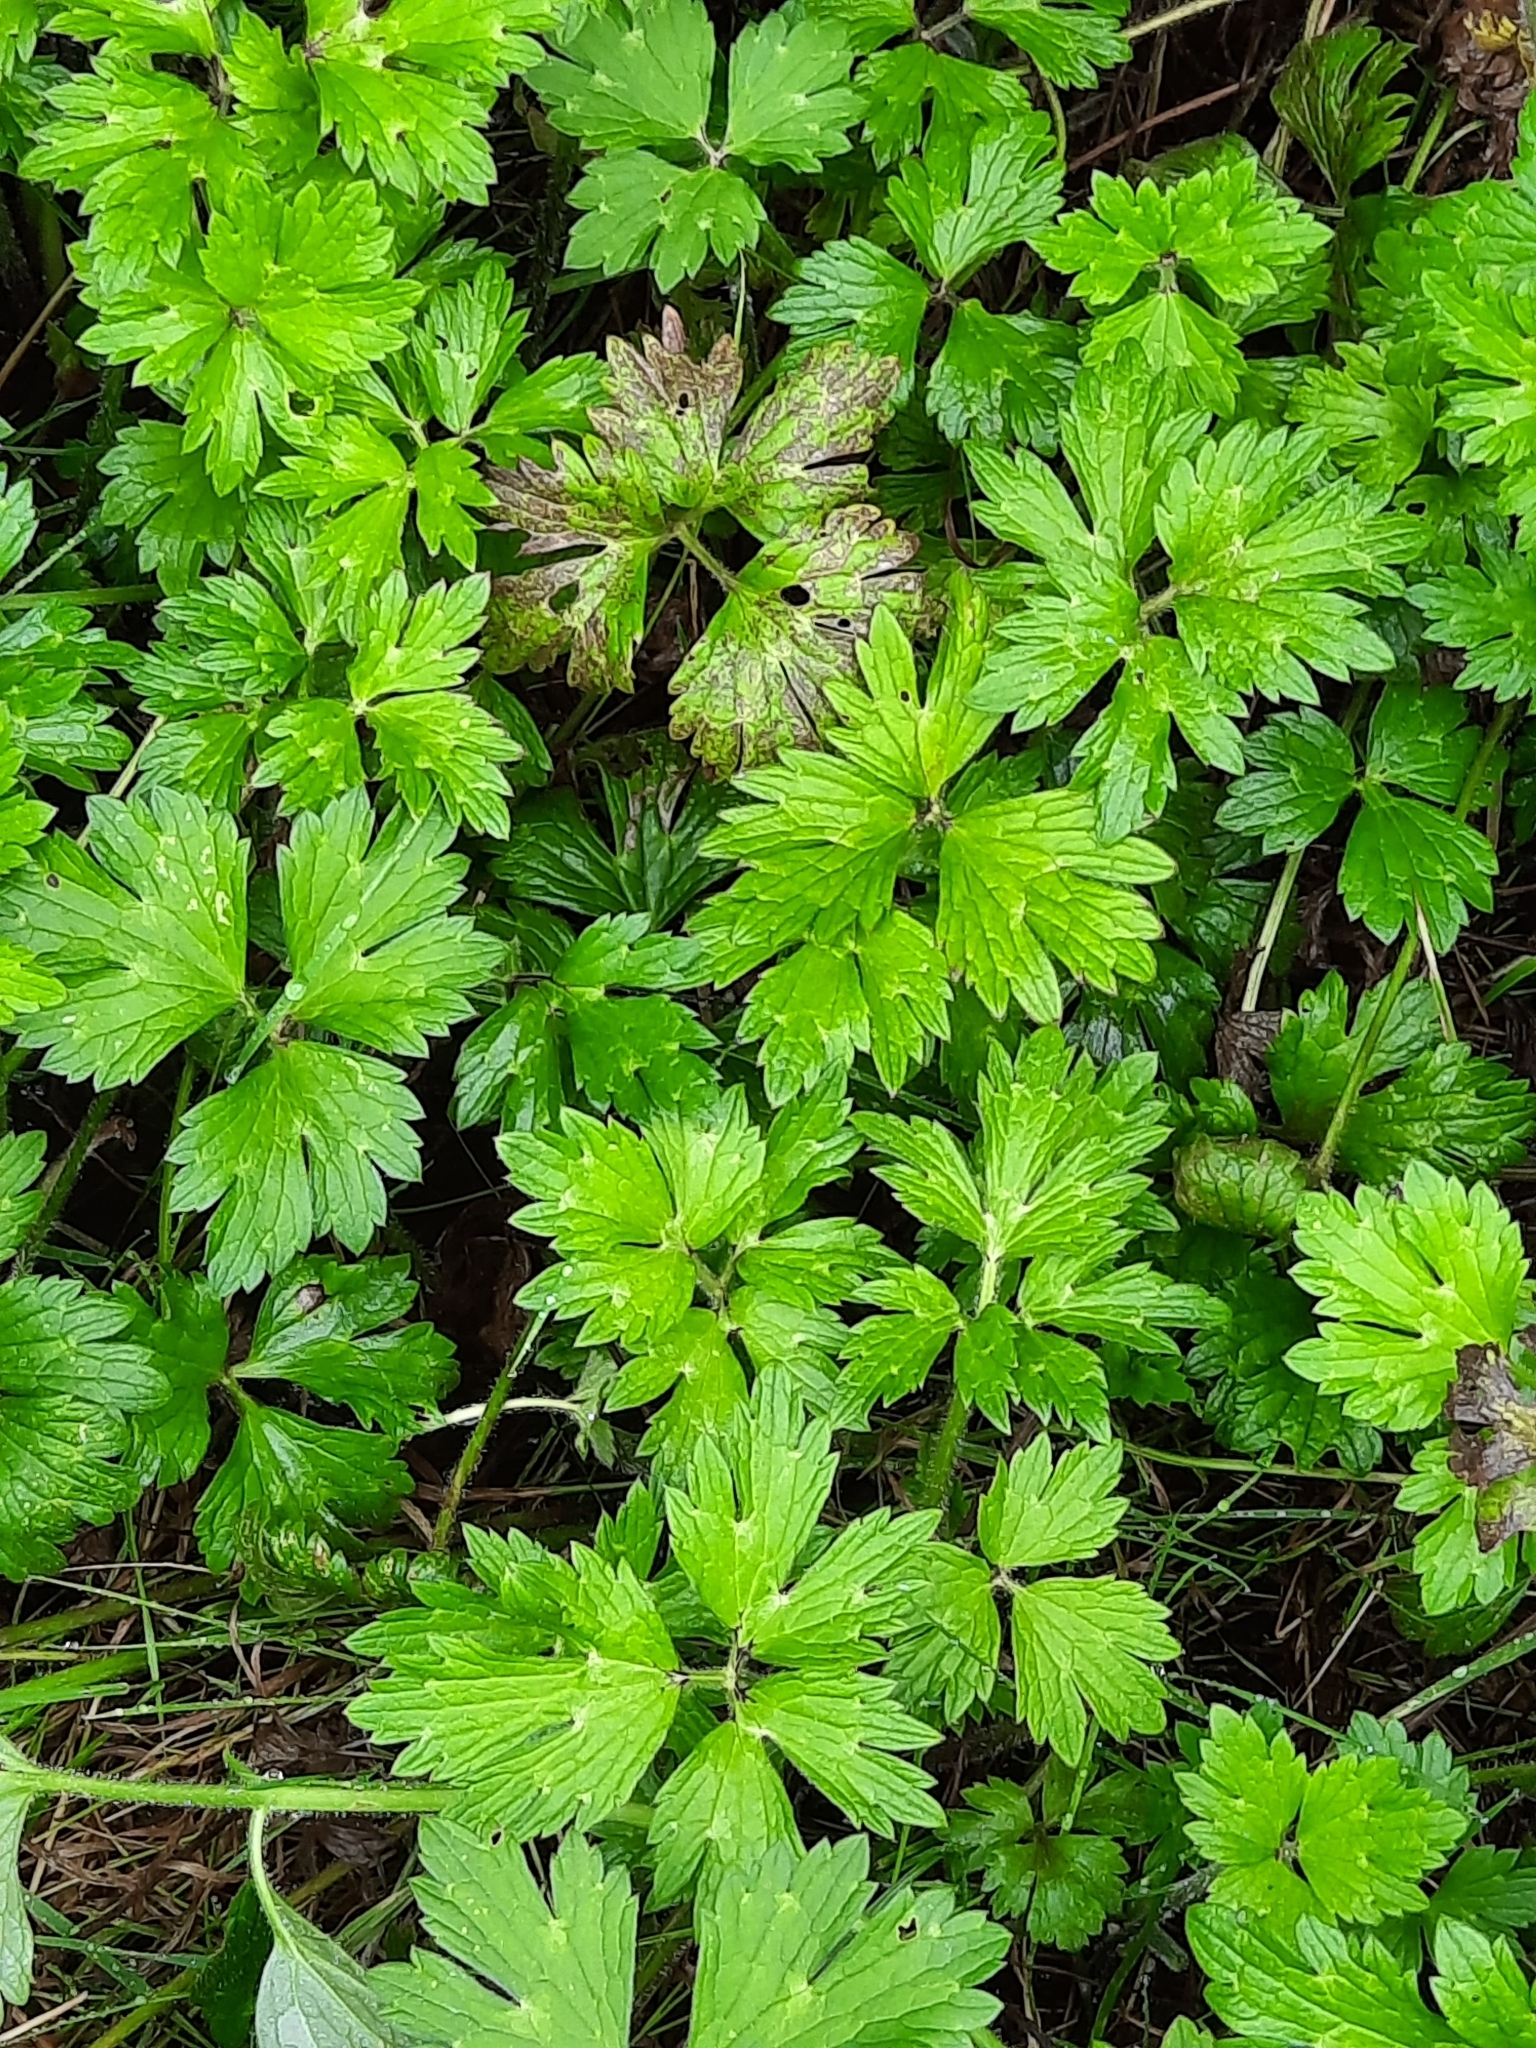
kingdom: Plantae
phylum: Tracheophyta
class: Magnoliopsida
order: Ranunculales
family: Ranunculaceae
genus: Ranunculus
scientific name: Ranunculus repens
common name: Creeping buttercup
